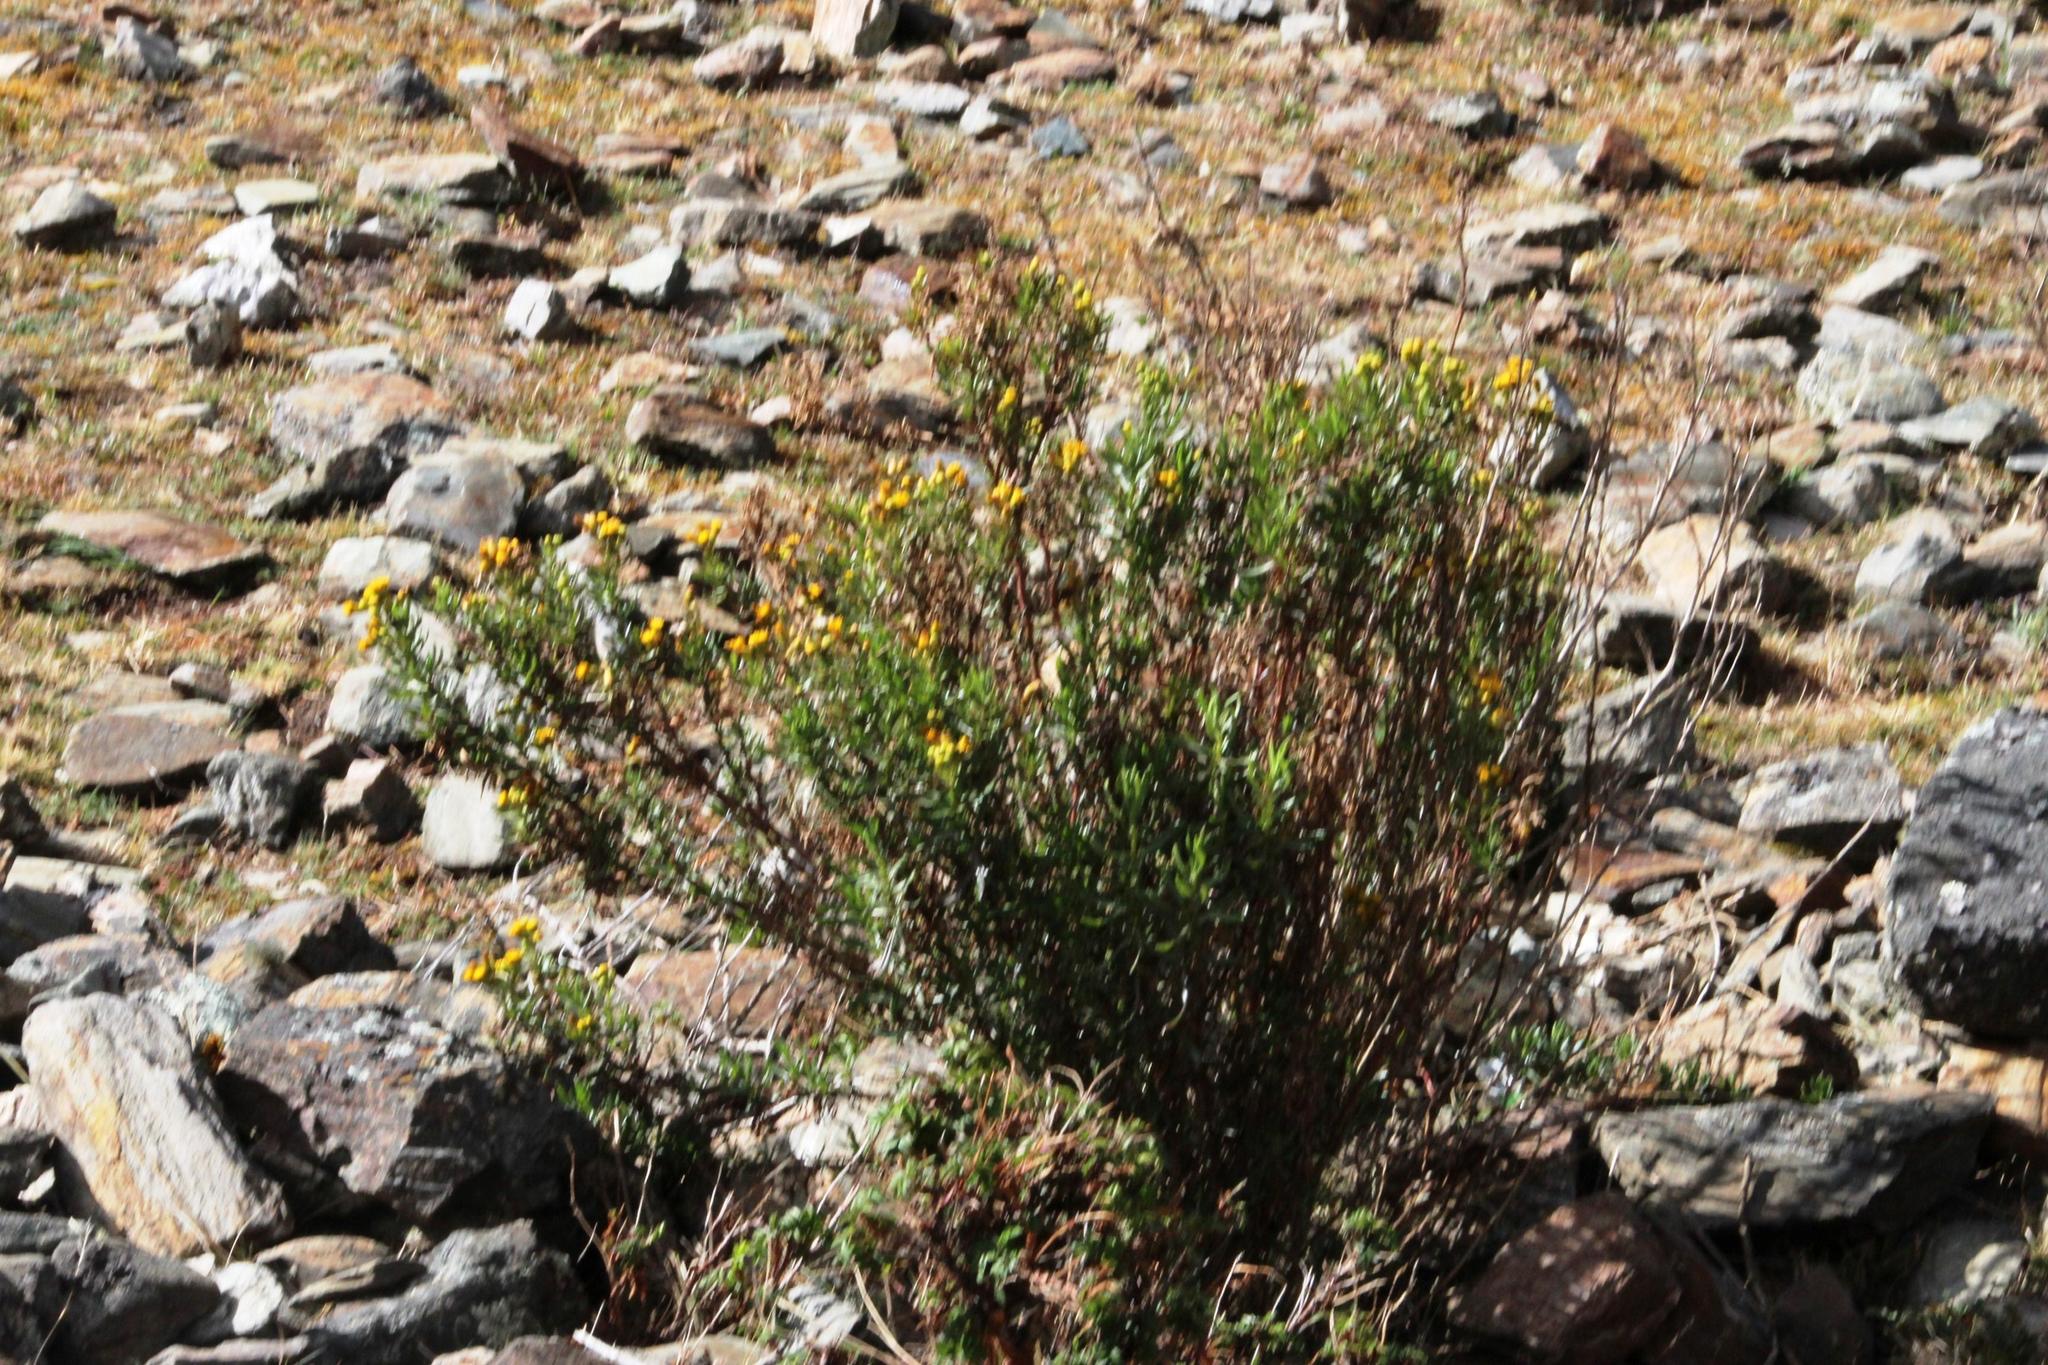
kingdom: Plantae
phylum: Tracheophyta
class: Magnoliopsida
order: Asterales
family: Asteraceae
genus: Senecio
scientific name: Senecio peruensis
